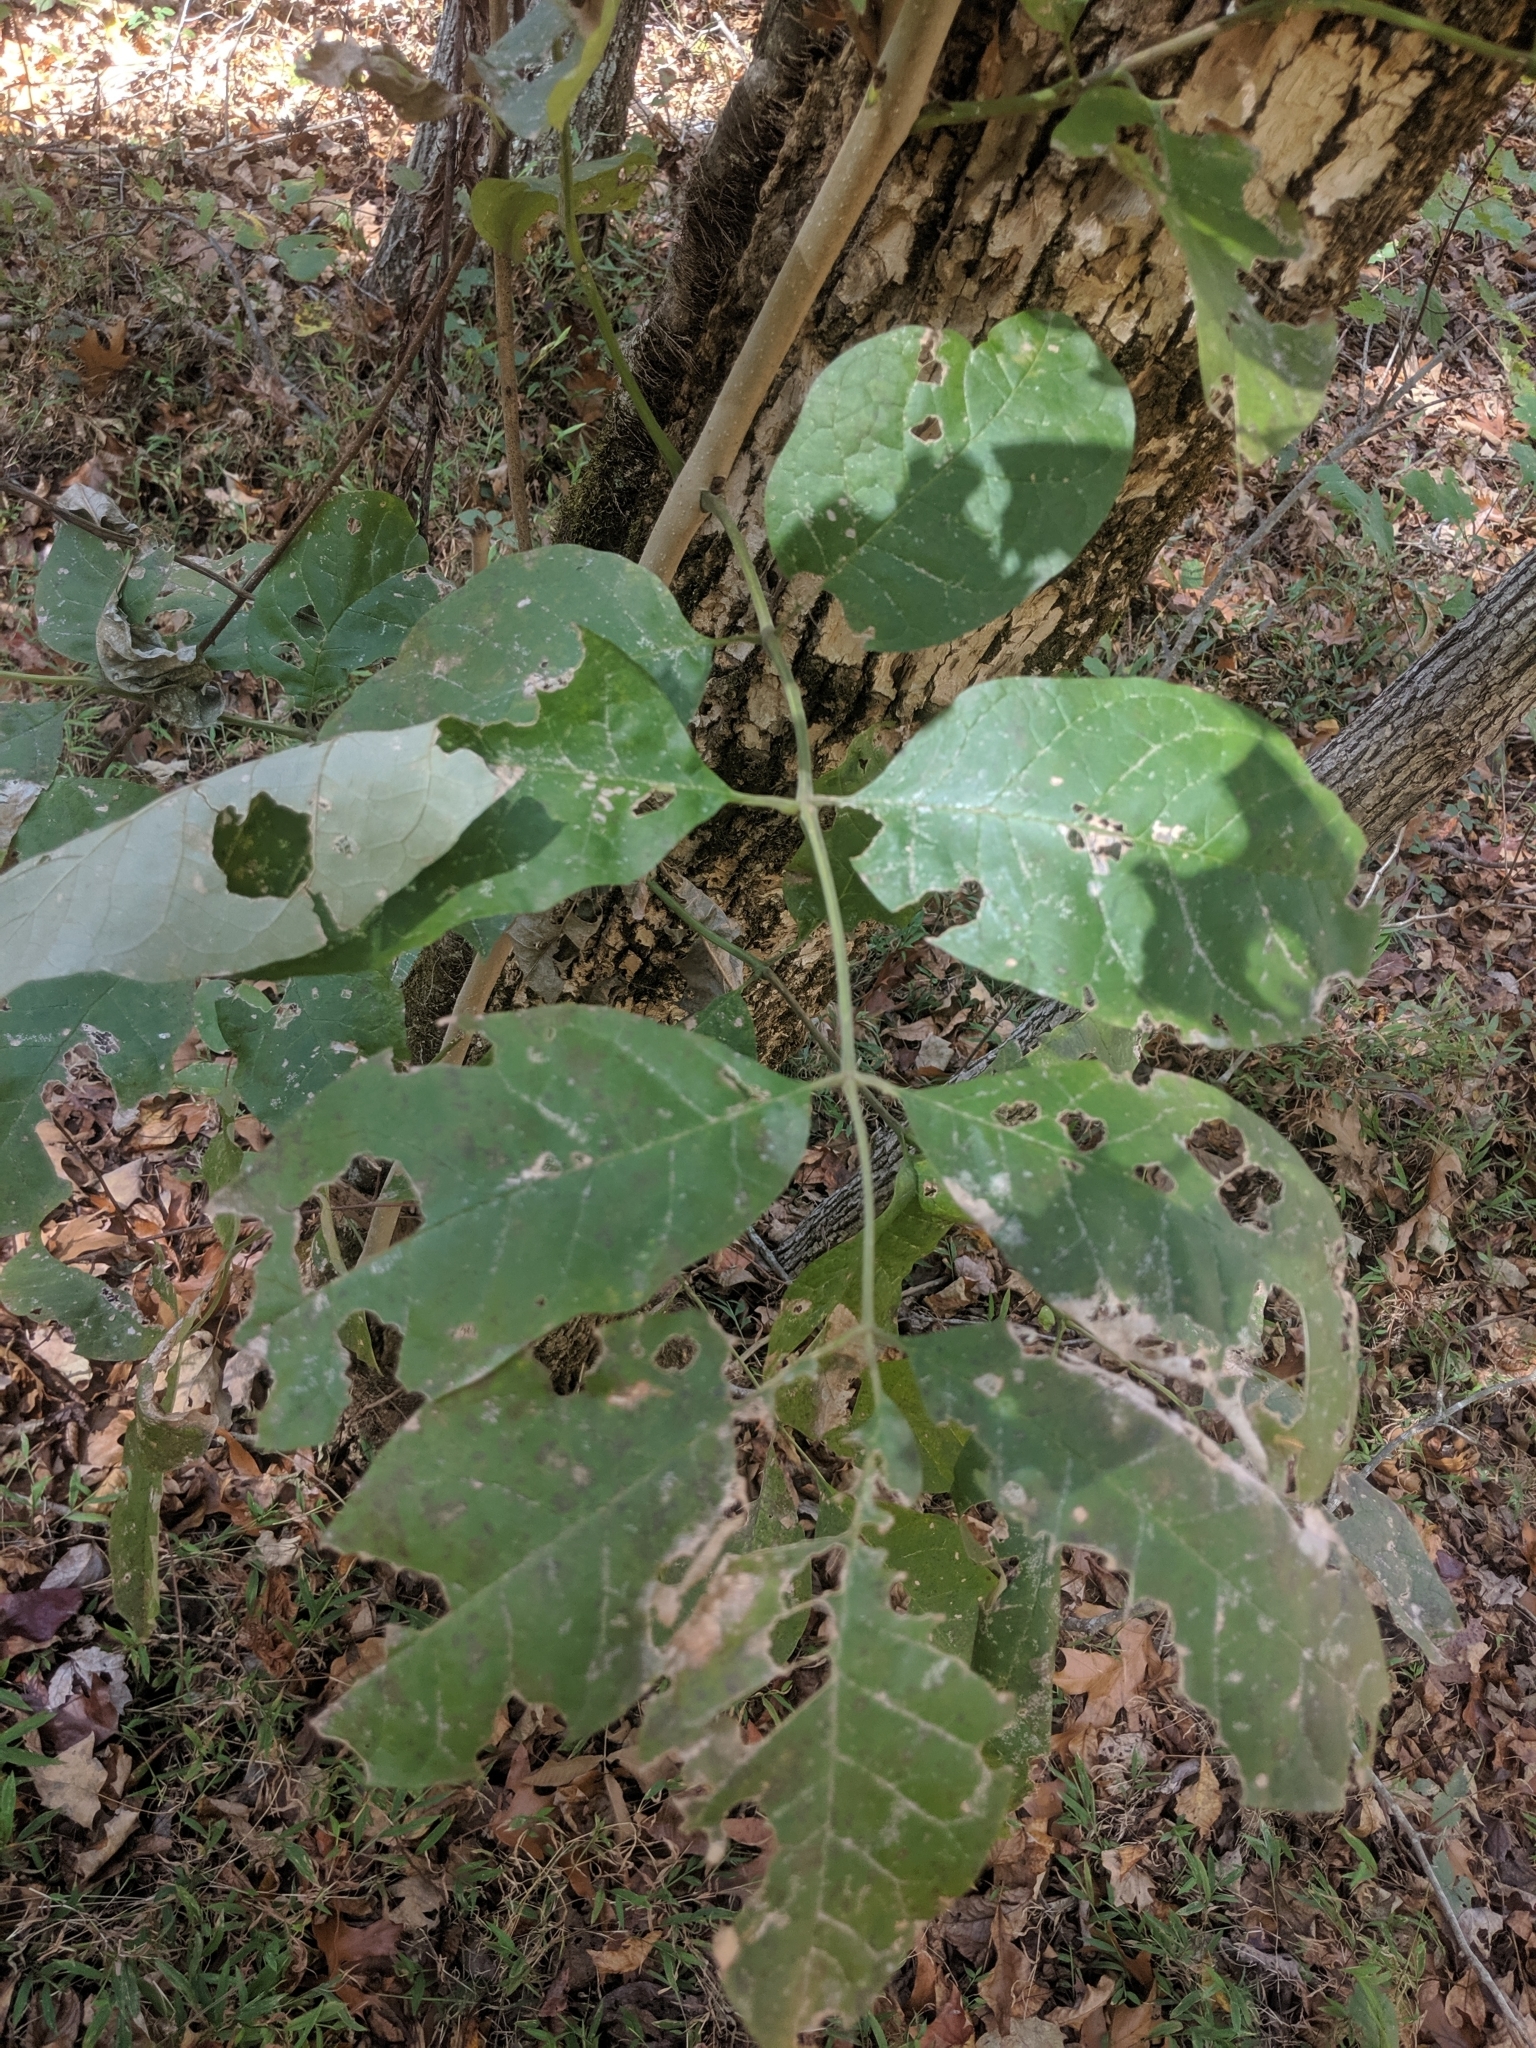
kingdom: Plantae
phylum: Tracheophyta
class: Magnoliopsida
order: Lamiales
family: Oleaceae
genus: Fraxinus
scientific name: Fraxinus pennsylvanica
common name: Green ash
